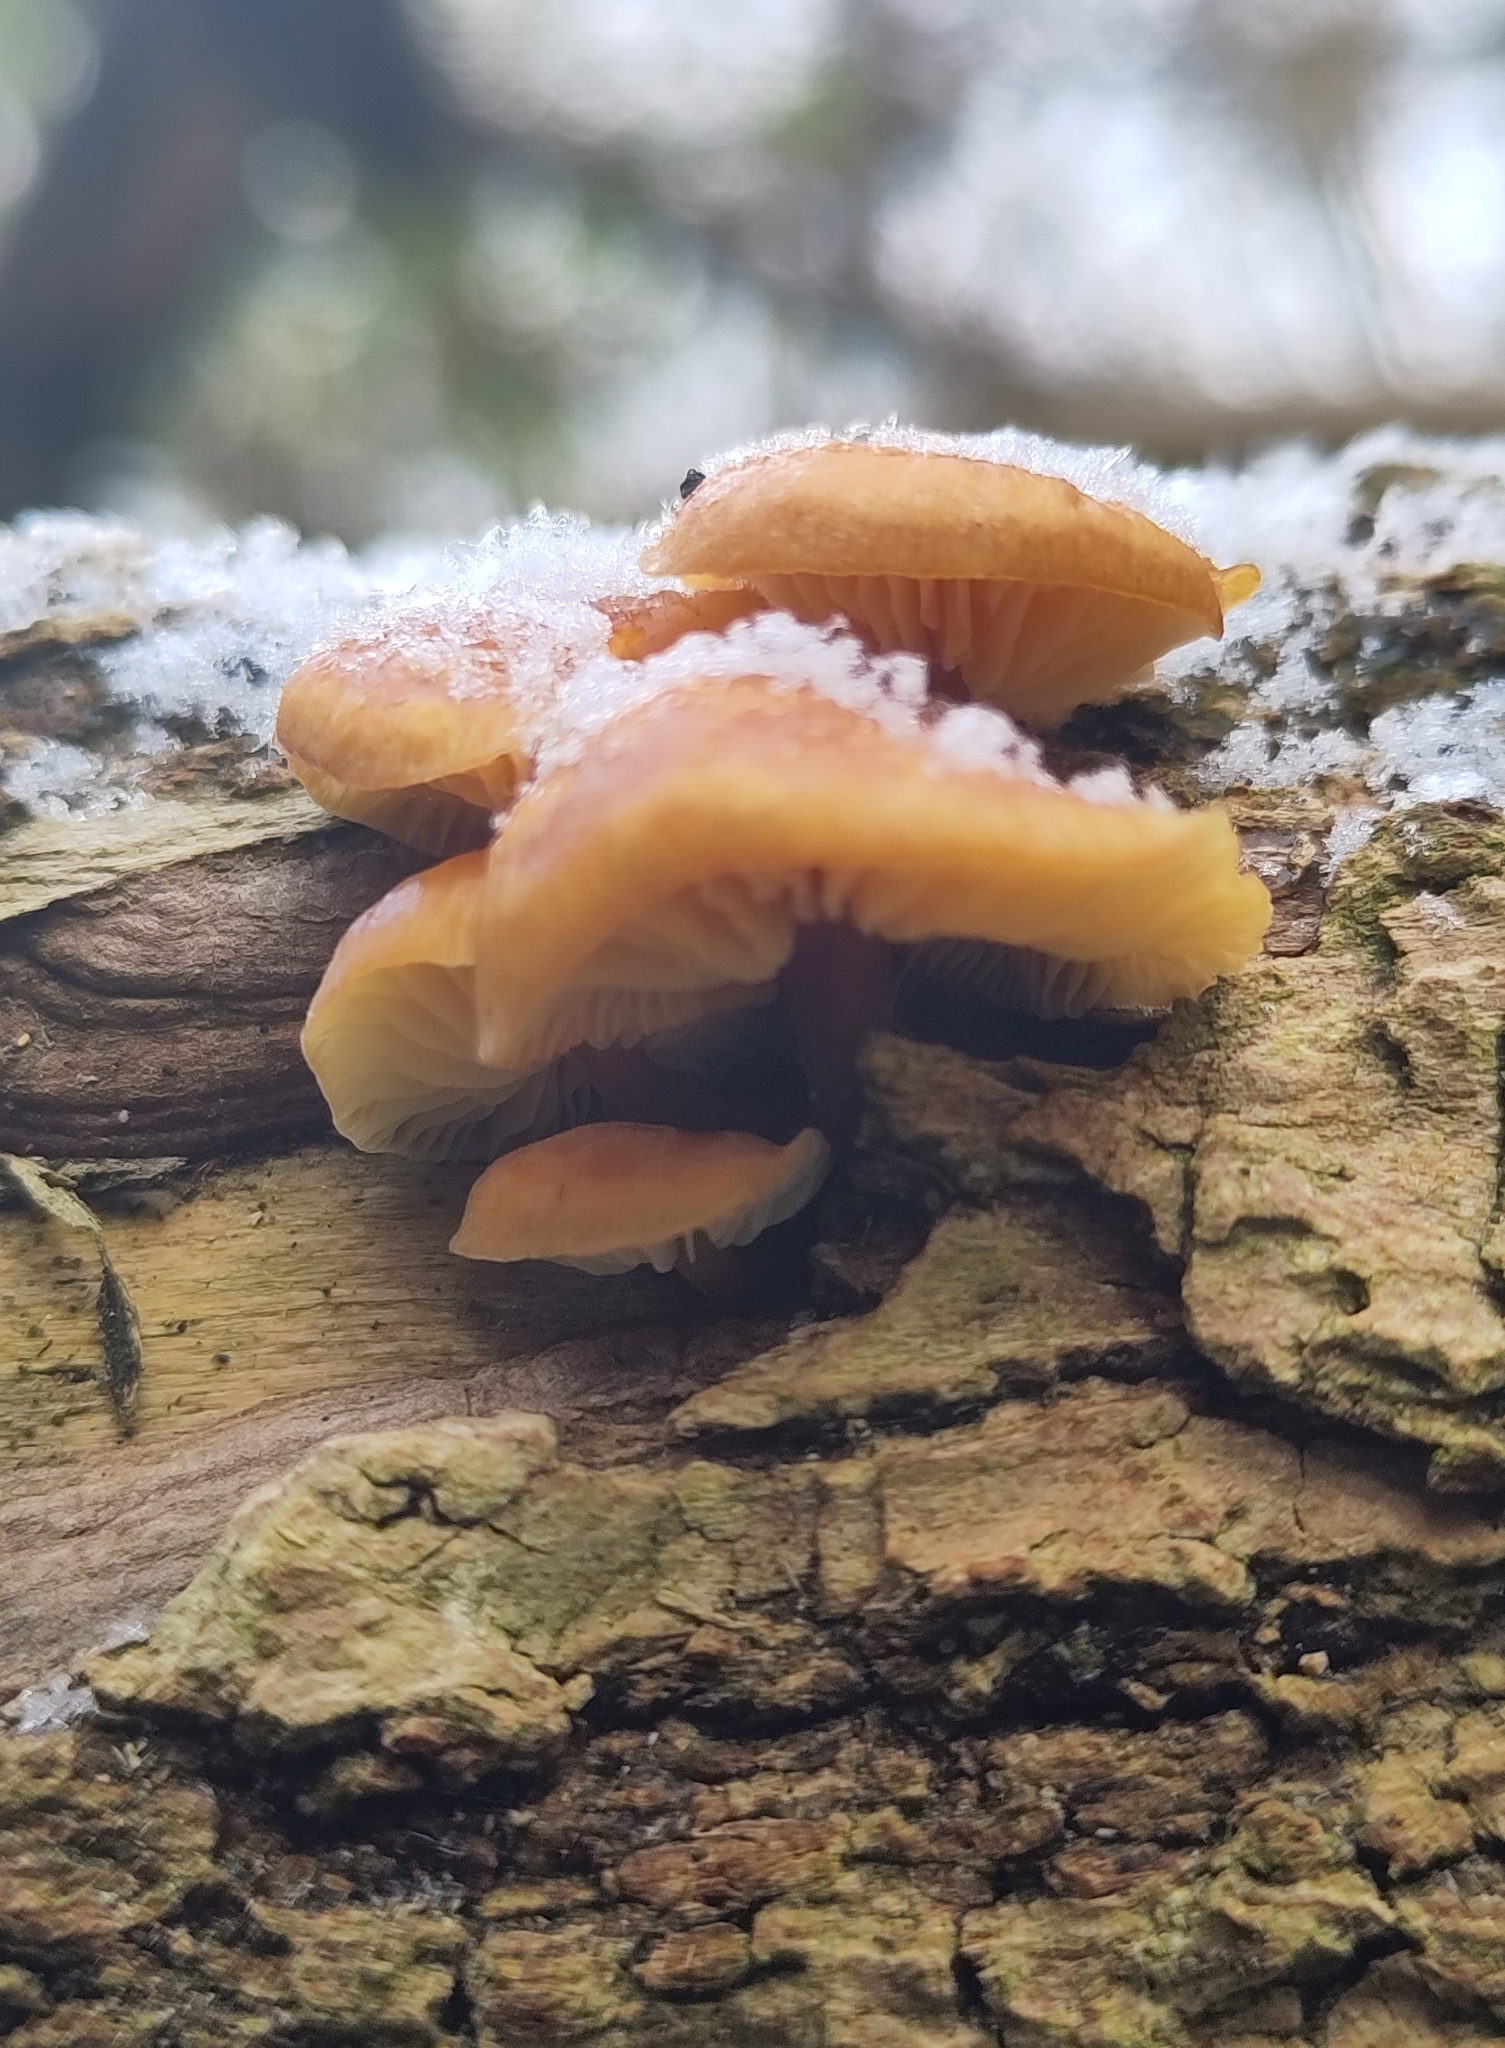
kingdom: Fungi
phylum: Basidiomycota
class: Agaricomycetes
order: Agaricales
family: Physalacriaceae
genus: Flammulina
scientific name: Flammulina
